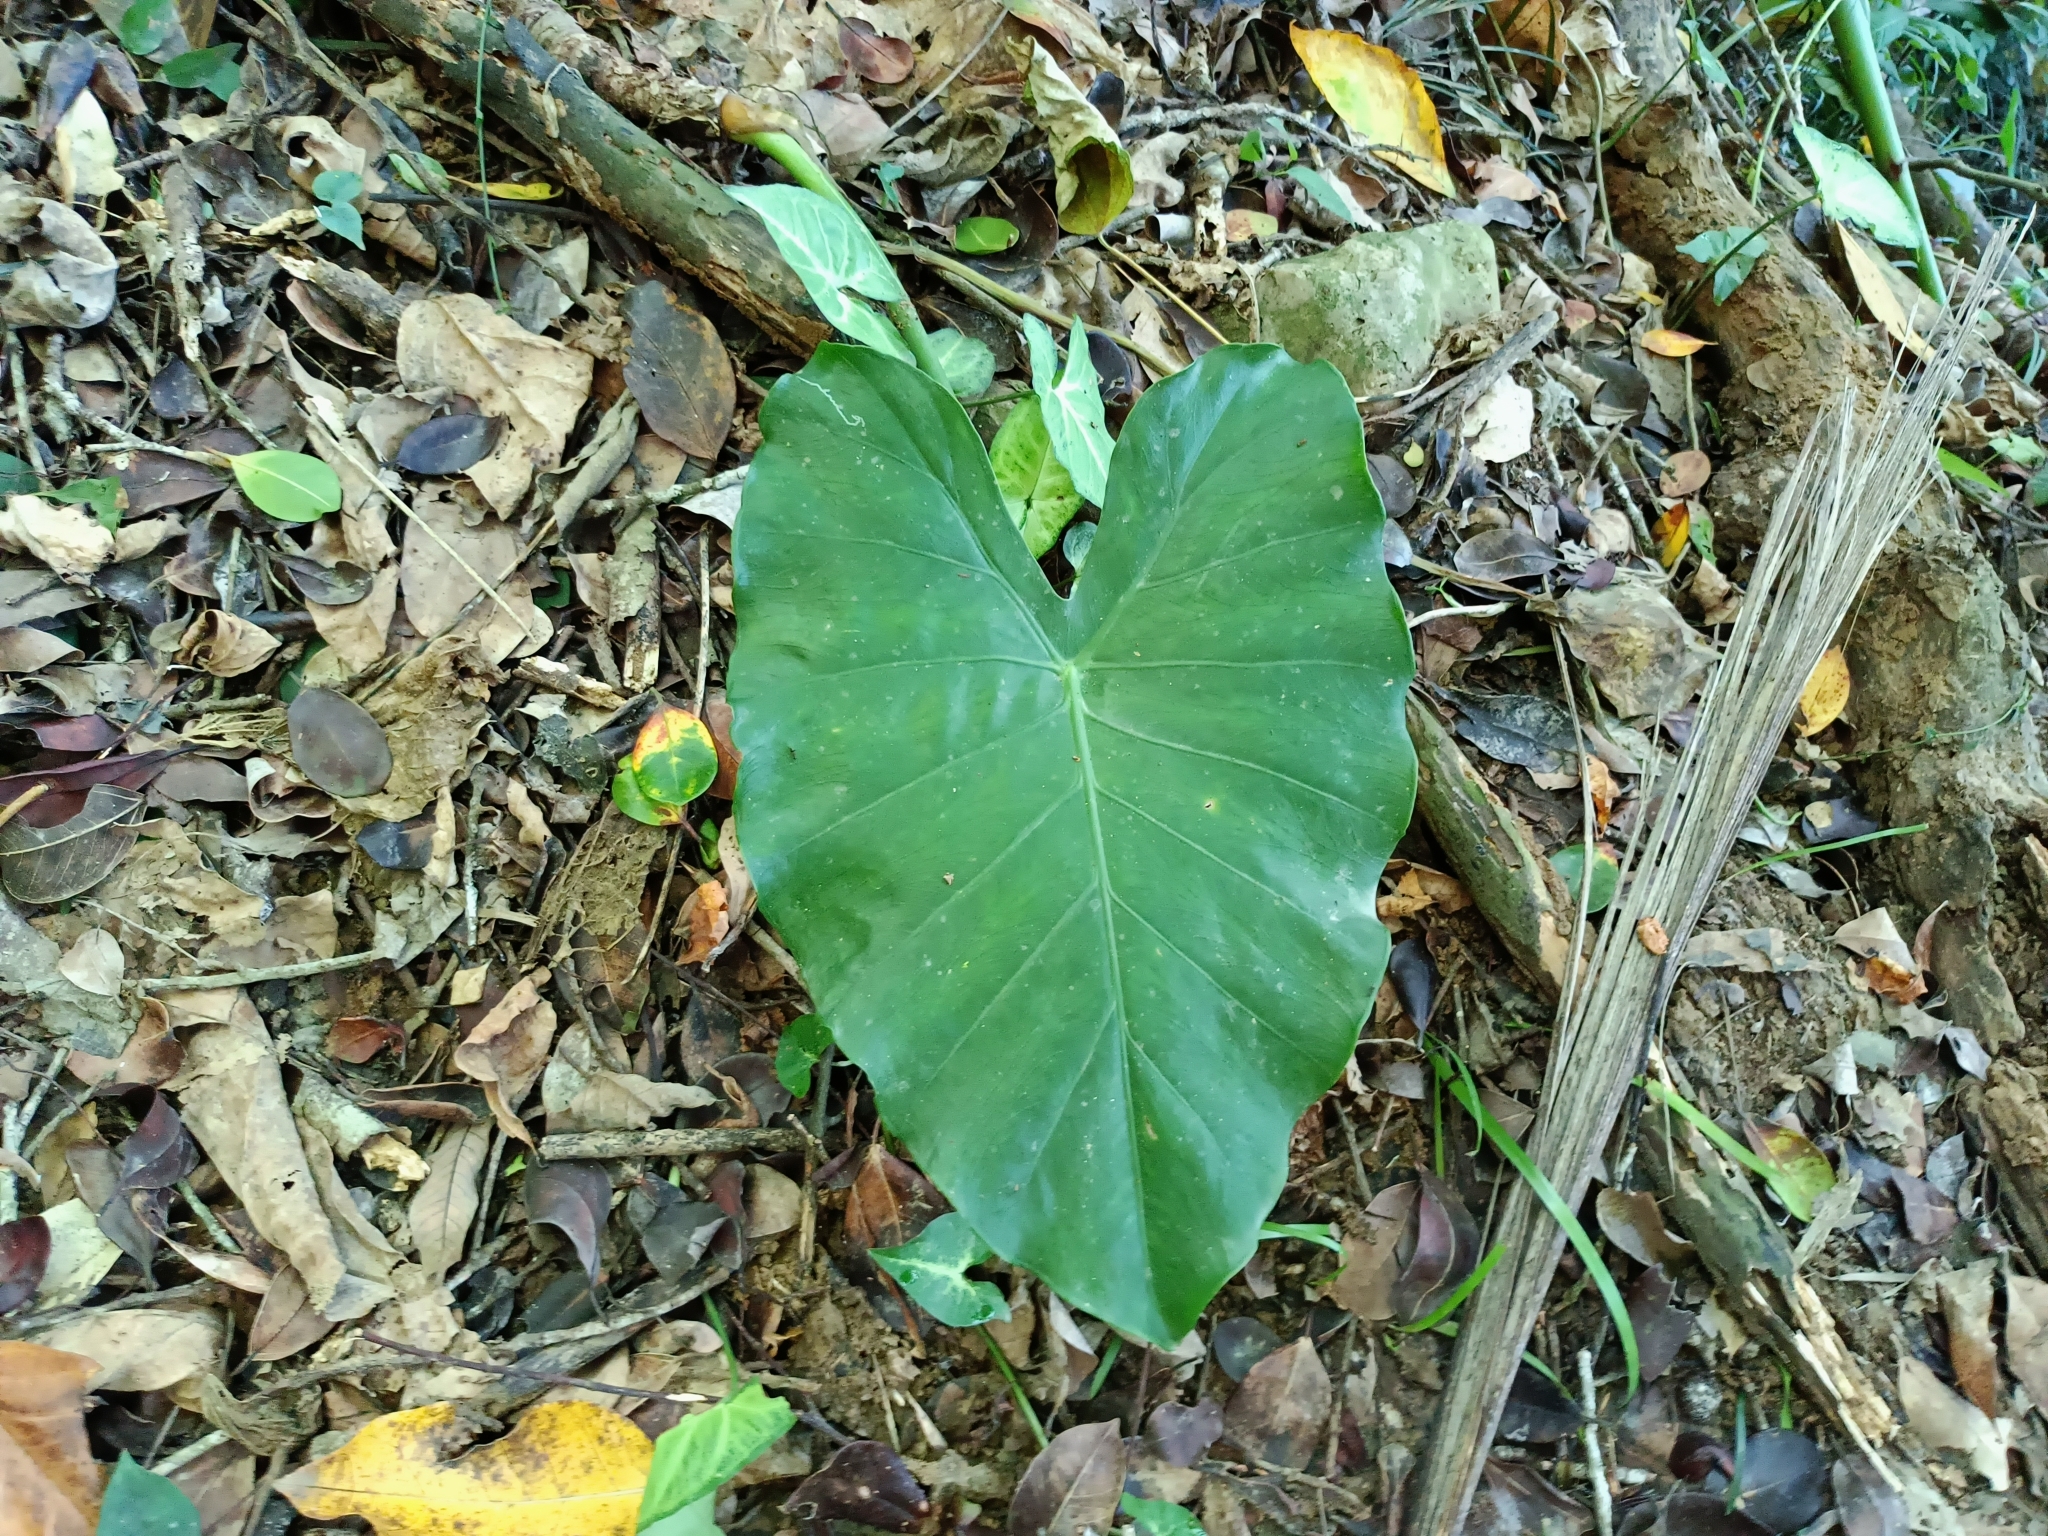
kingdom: Plantae
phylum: Tracheophyta
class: Liliopsida
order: Alismatales
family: Araceae
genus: Alocasia
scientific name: Alocasia odora
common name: Asian taro
